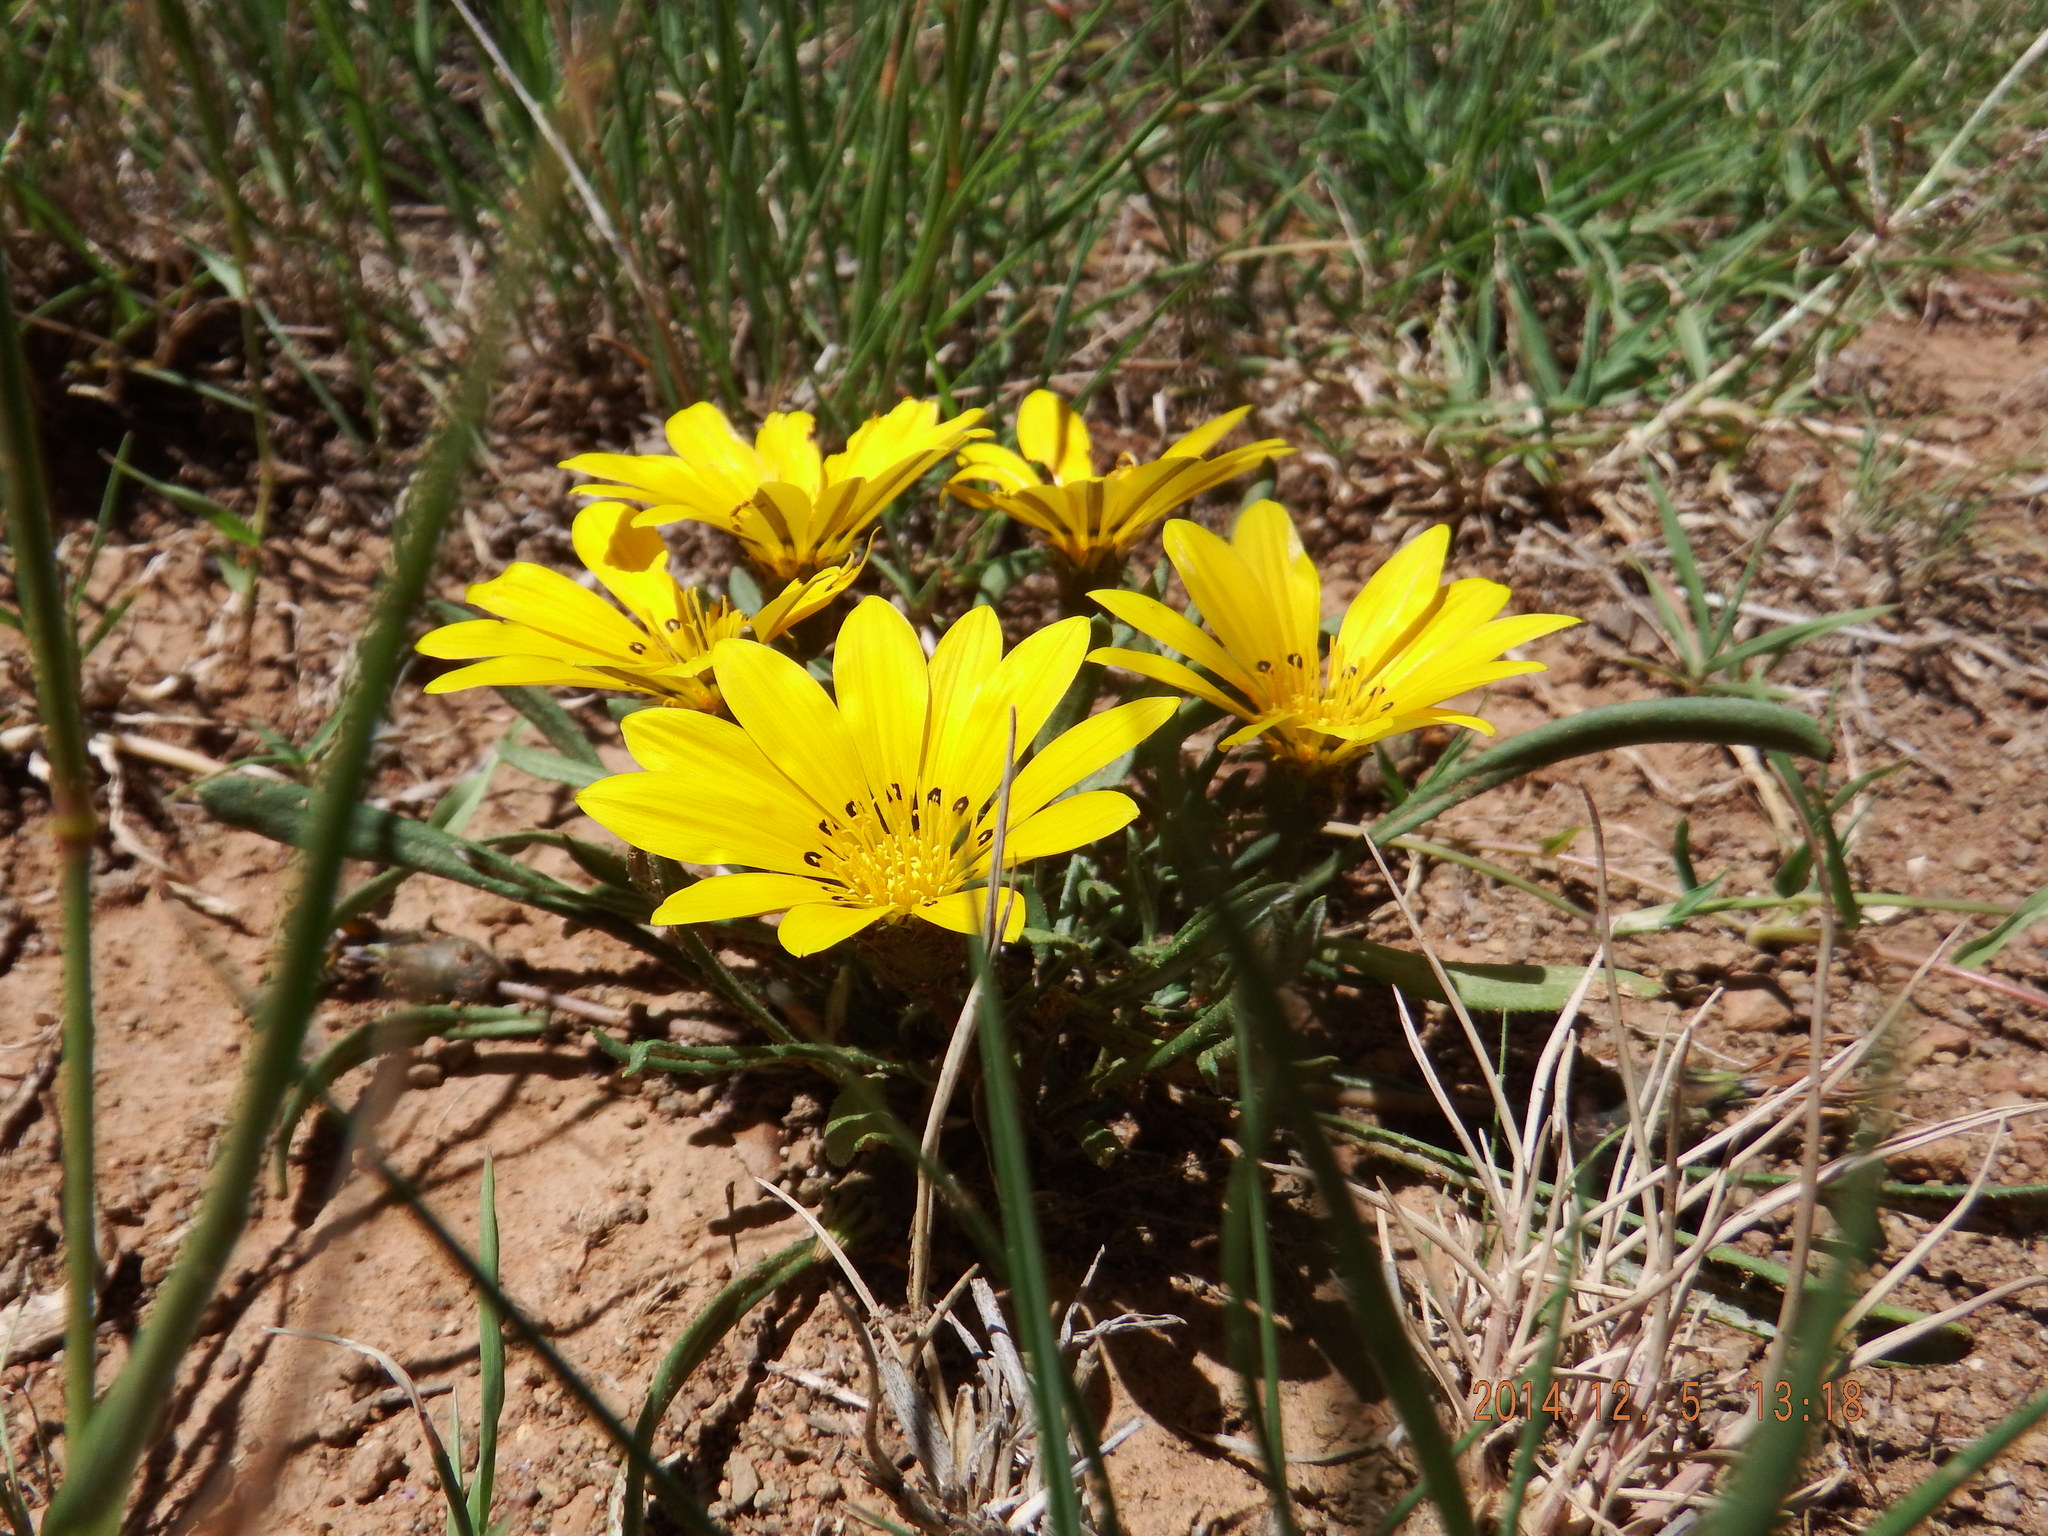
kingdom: Plantae
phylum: Tracheophyta
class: Magnoliopsida
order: Asterales
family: Asteraceae
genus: Gazania
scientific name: Gazania krebsiana
